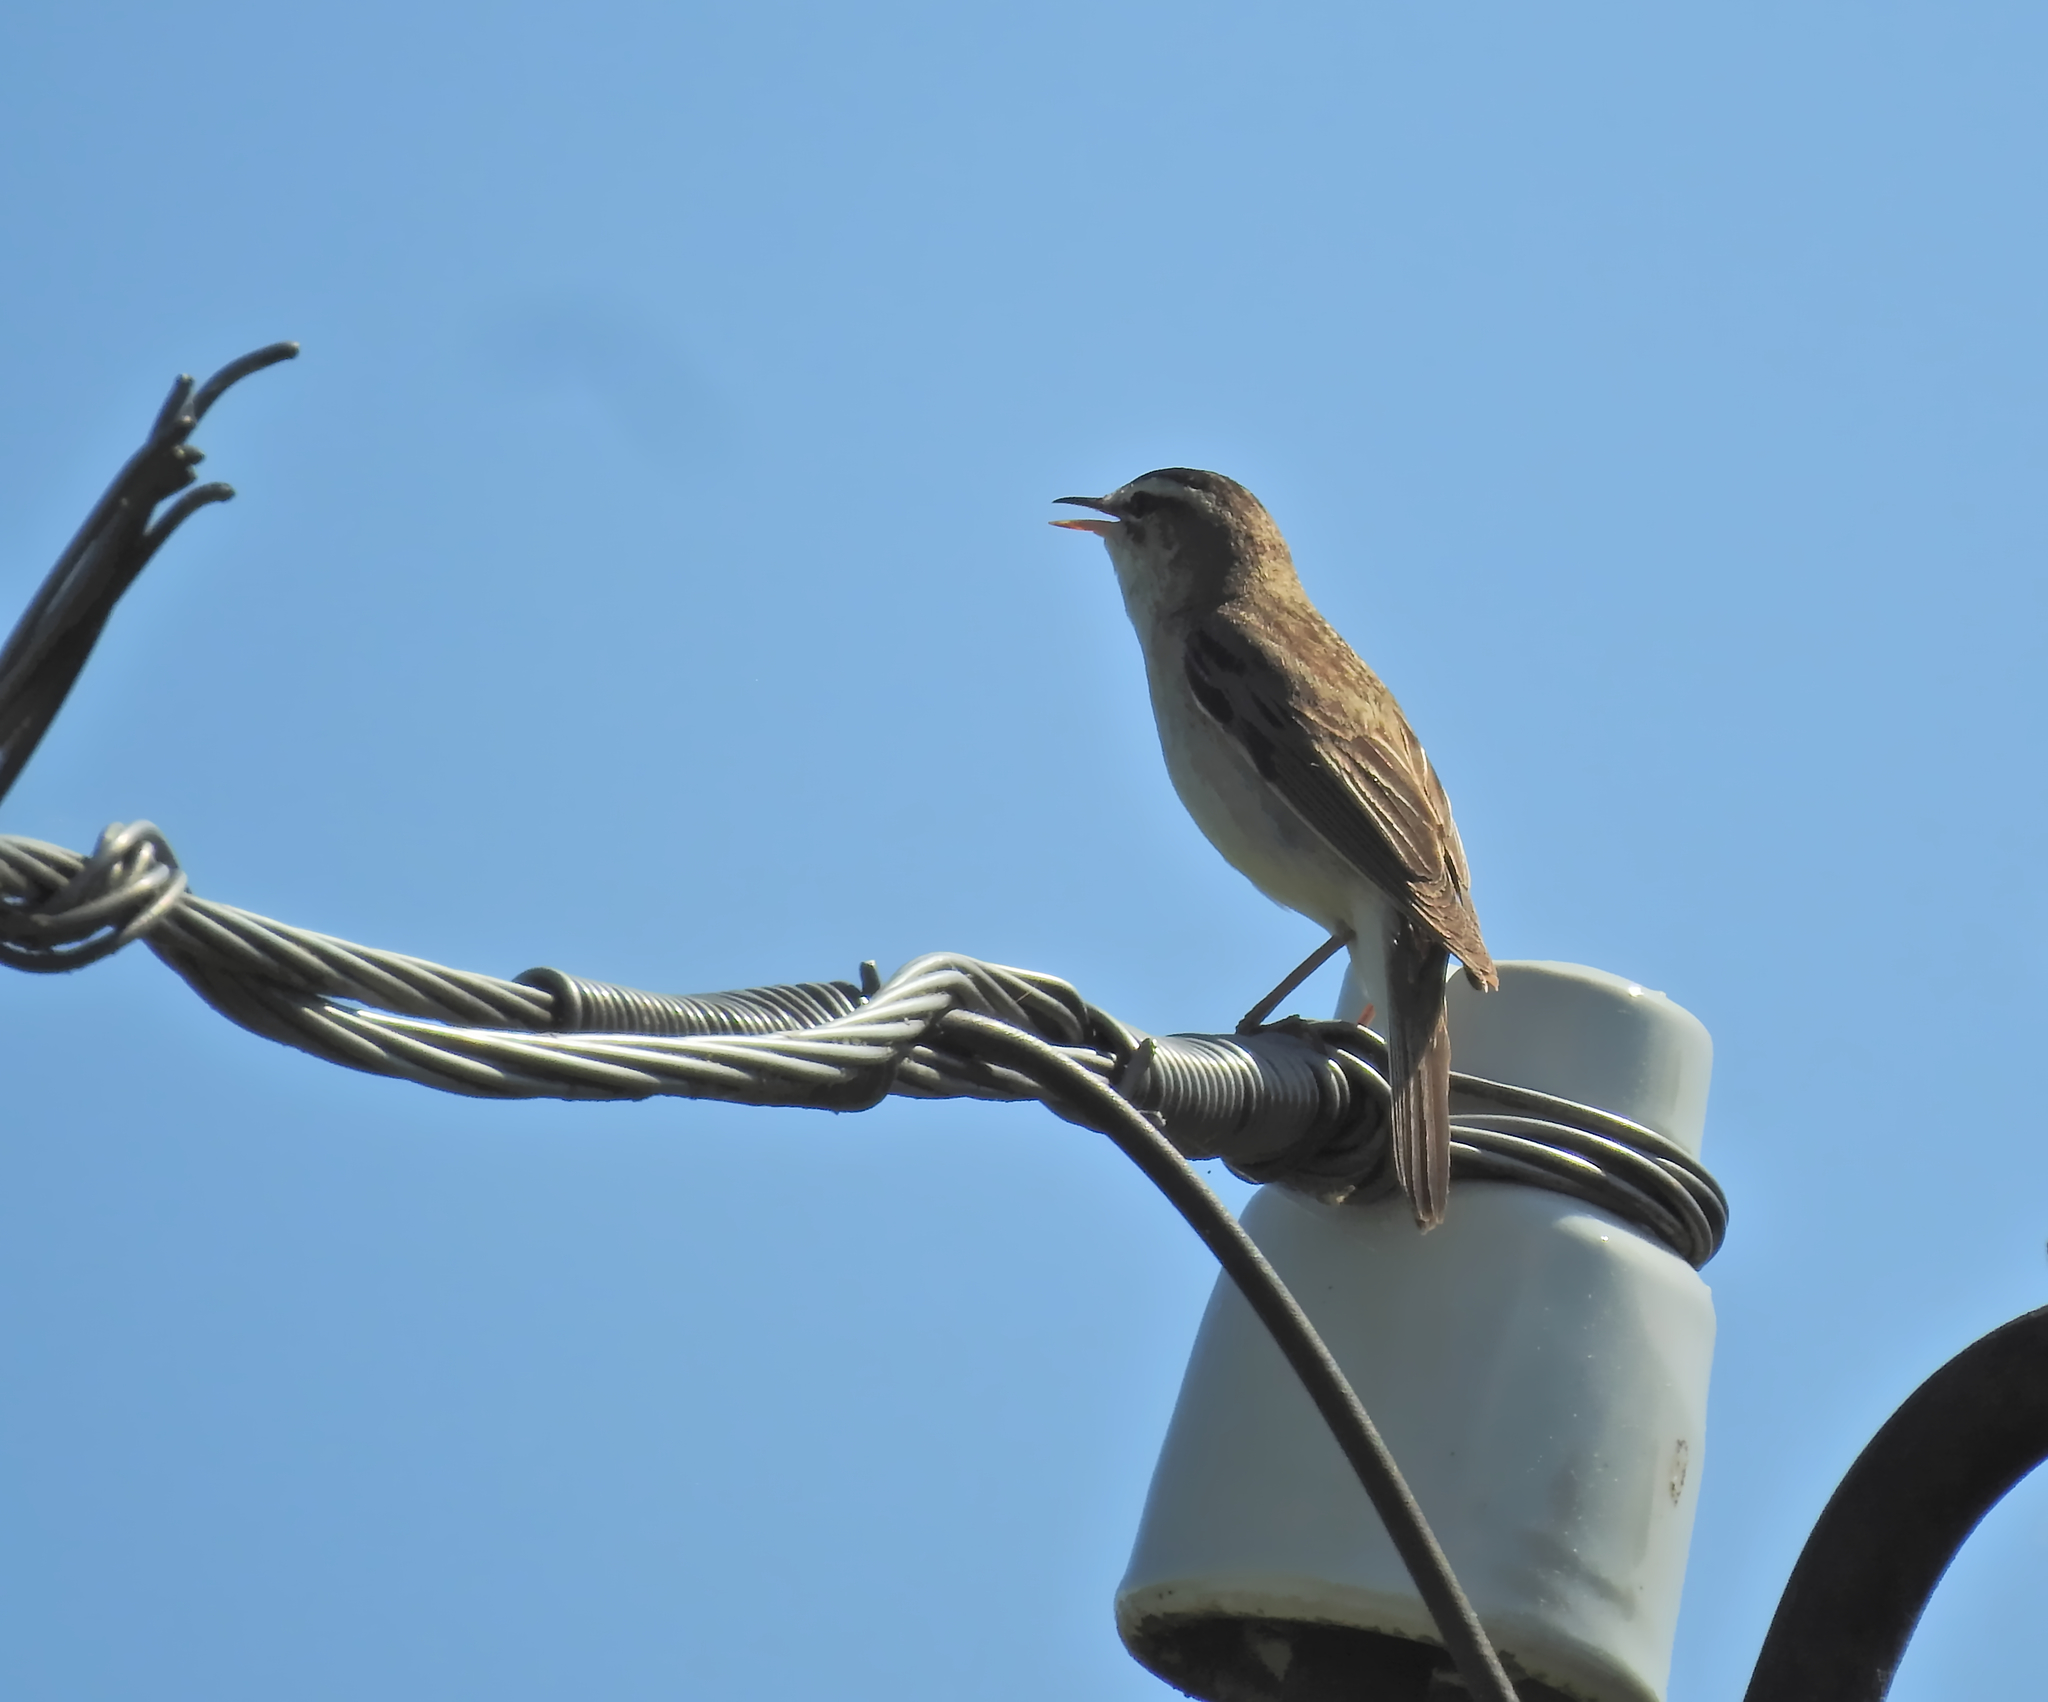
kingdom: Animalia
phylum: Chordata
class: Aves
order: Passeriformes
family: Acrocephalidae
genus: Acrocephalus
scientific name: Acrocephalus schoenobaenus
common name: Sedge warbler
